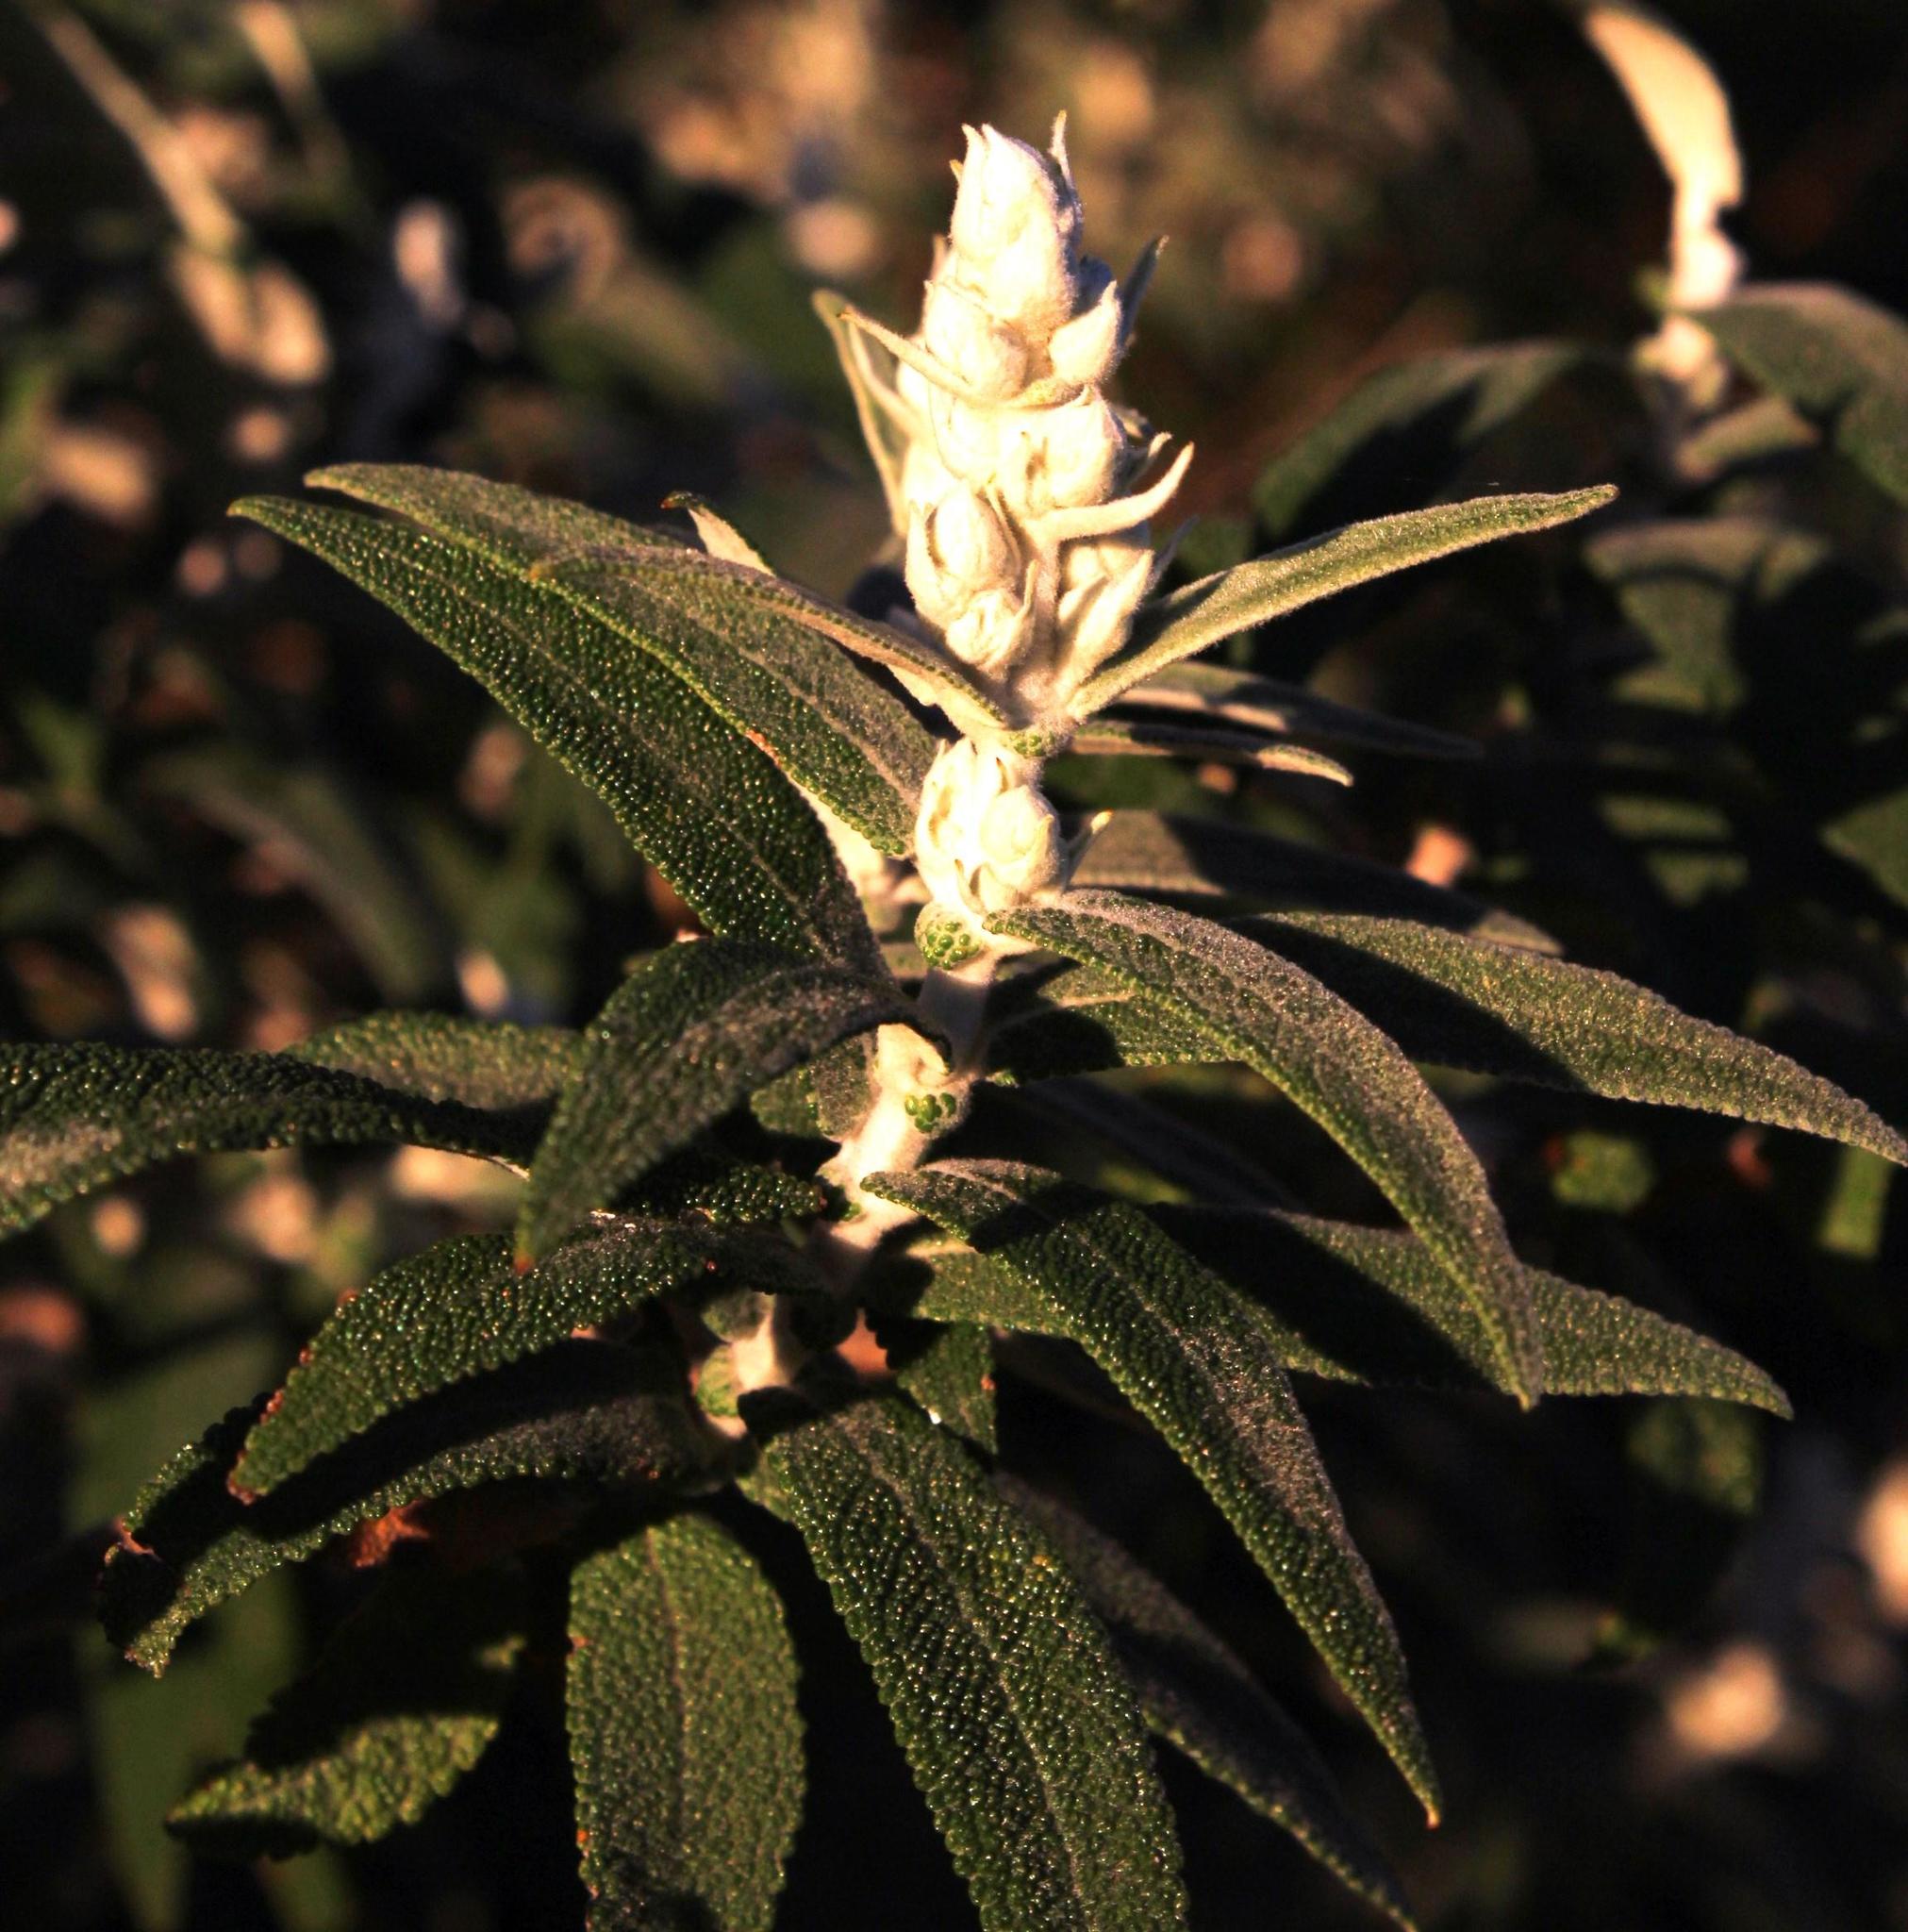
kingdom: Plantae
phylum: Tracheophyta
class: Magnoliopsida
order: Lamiales
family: Scrophulariaceae
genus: Buddleja
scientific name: Buddleja salviifolia
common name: Sagewood
